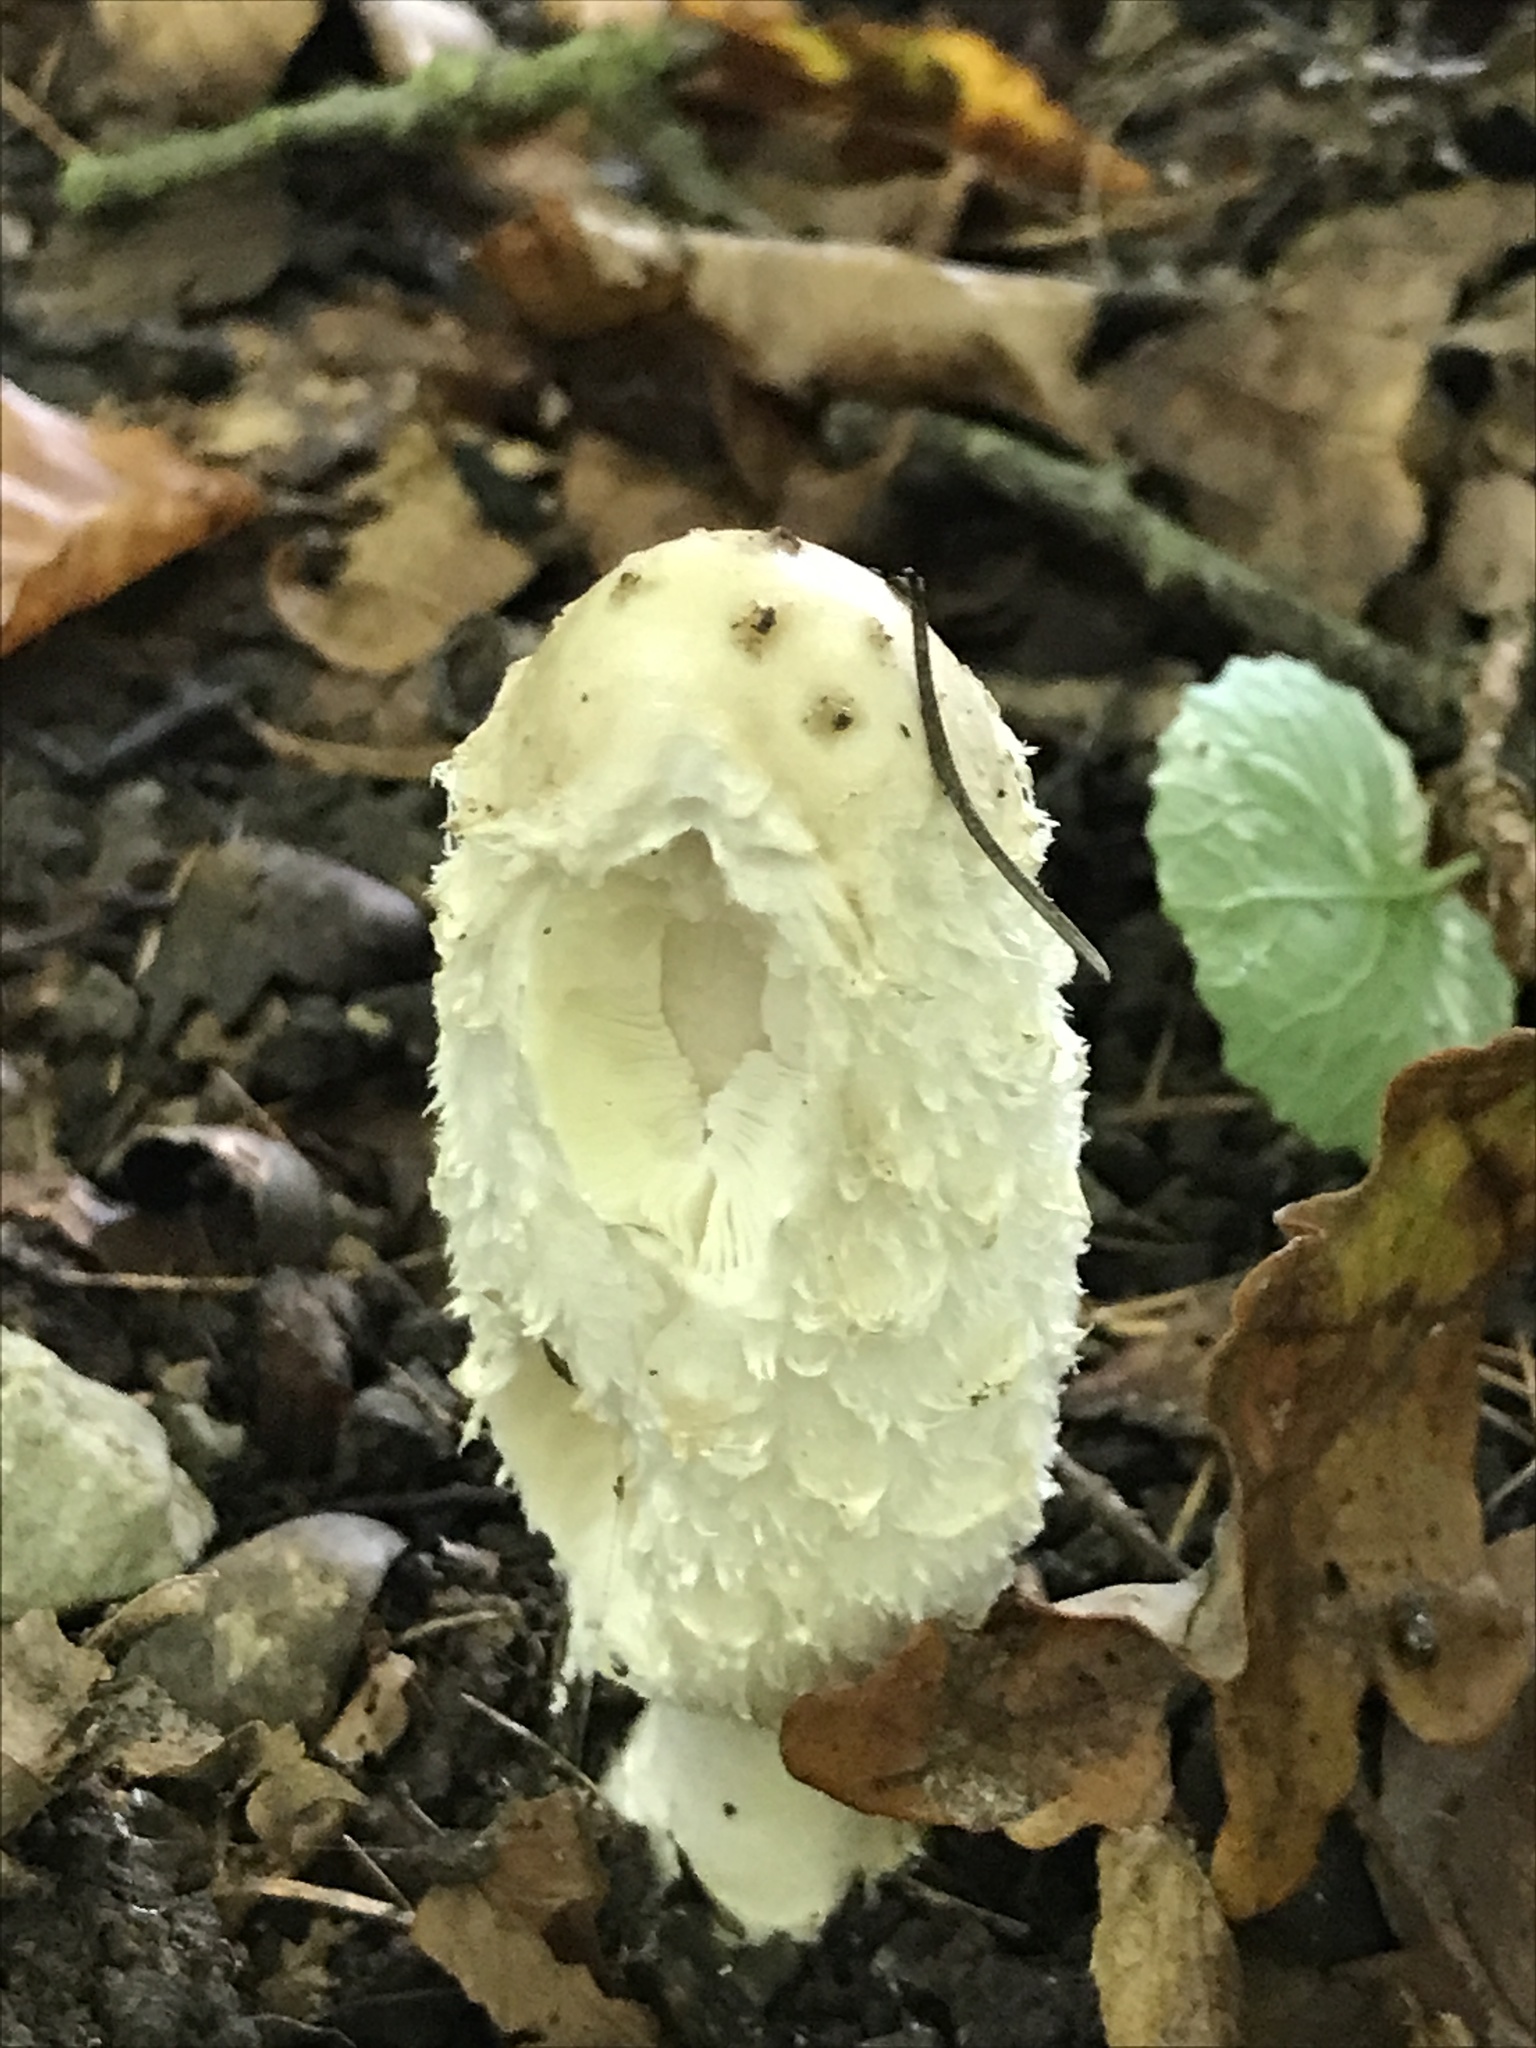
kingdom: Fungi
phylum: Basidiomycota
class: Agaricomycetes
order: Agaricales
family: Agaricaceae
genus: Coprinus
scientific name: Coprinus comatus
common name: Lawyer's wig
